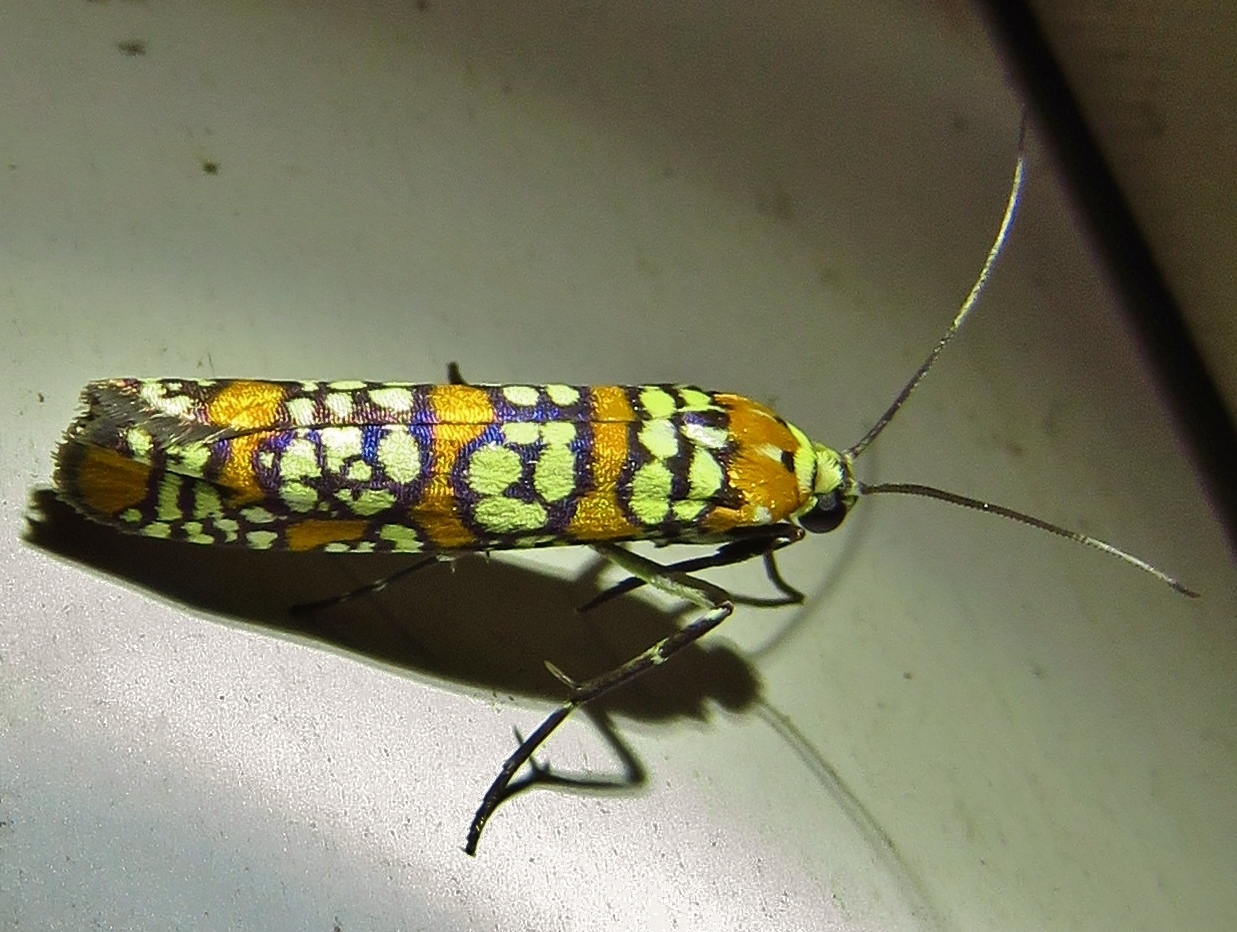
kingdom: Animalia
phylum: Arthropoda
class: Insecta
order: Lepidoptera
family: Attevidae
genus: Atteva
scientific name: Atteva punctella
